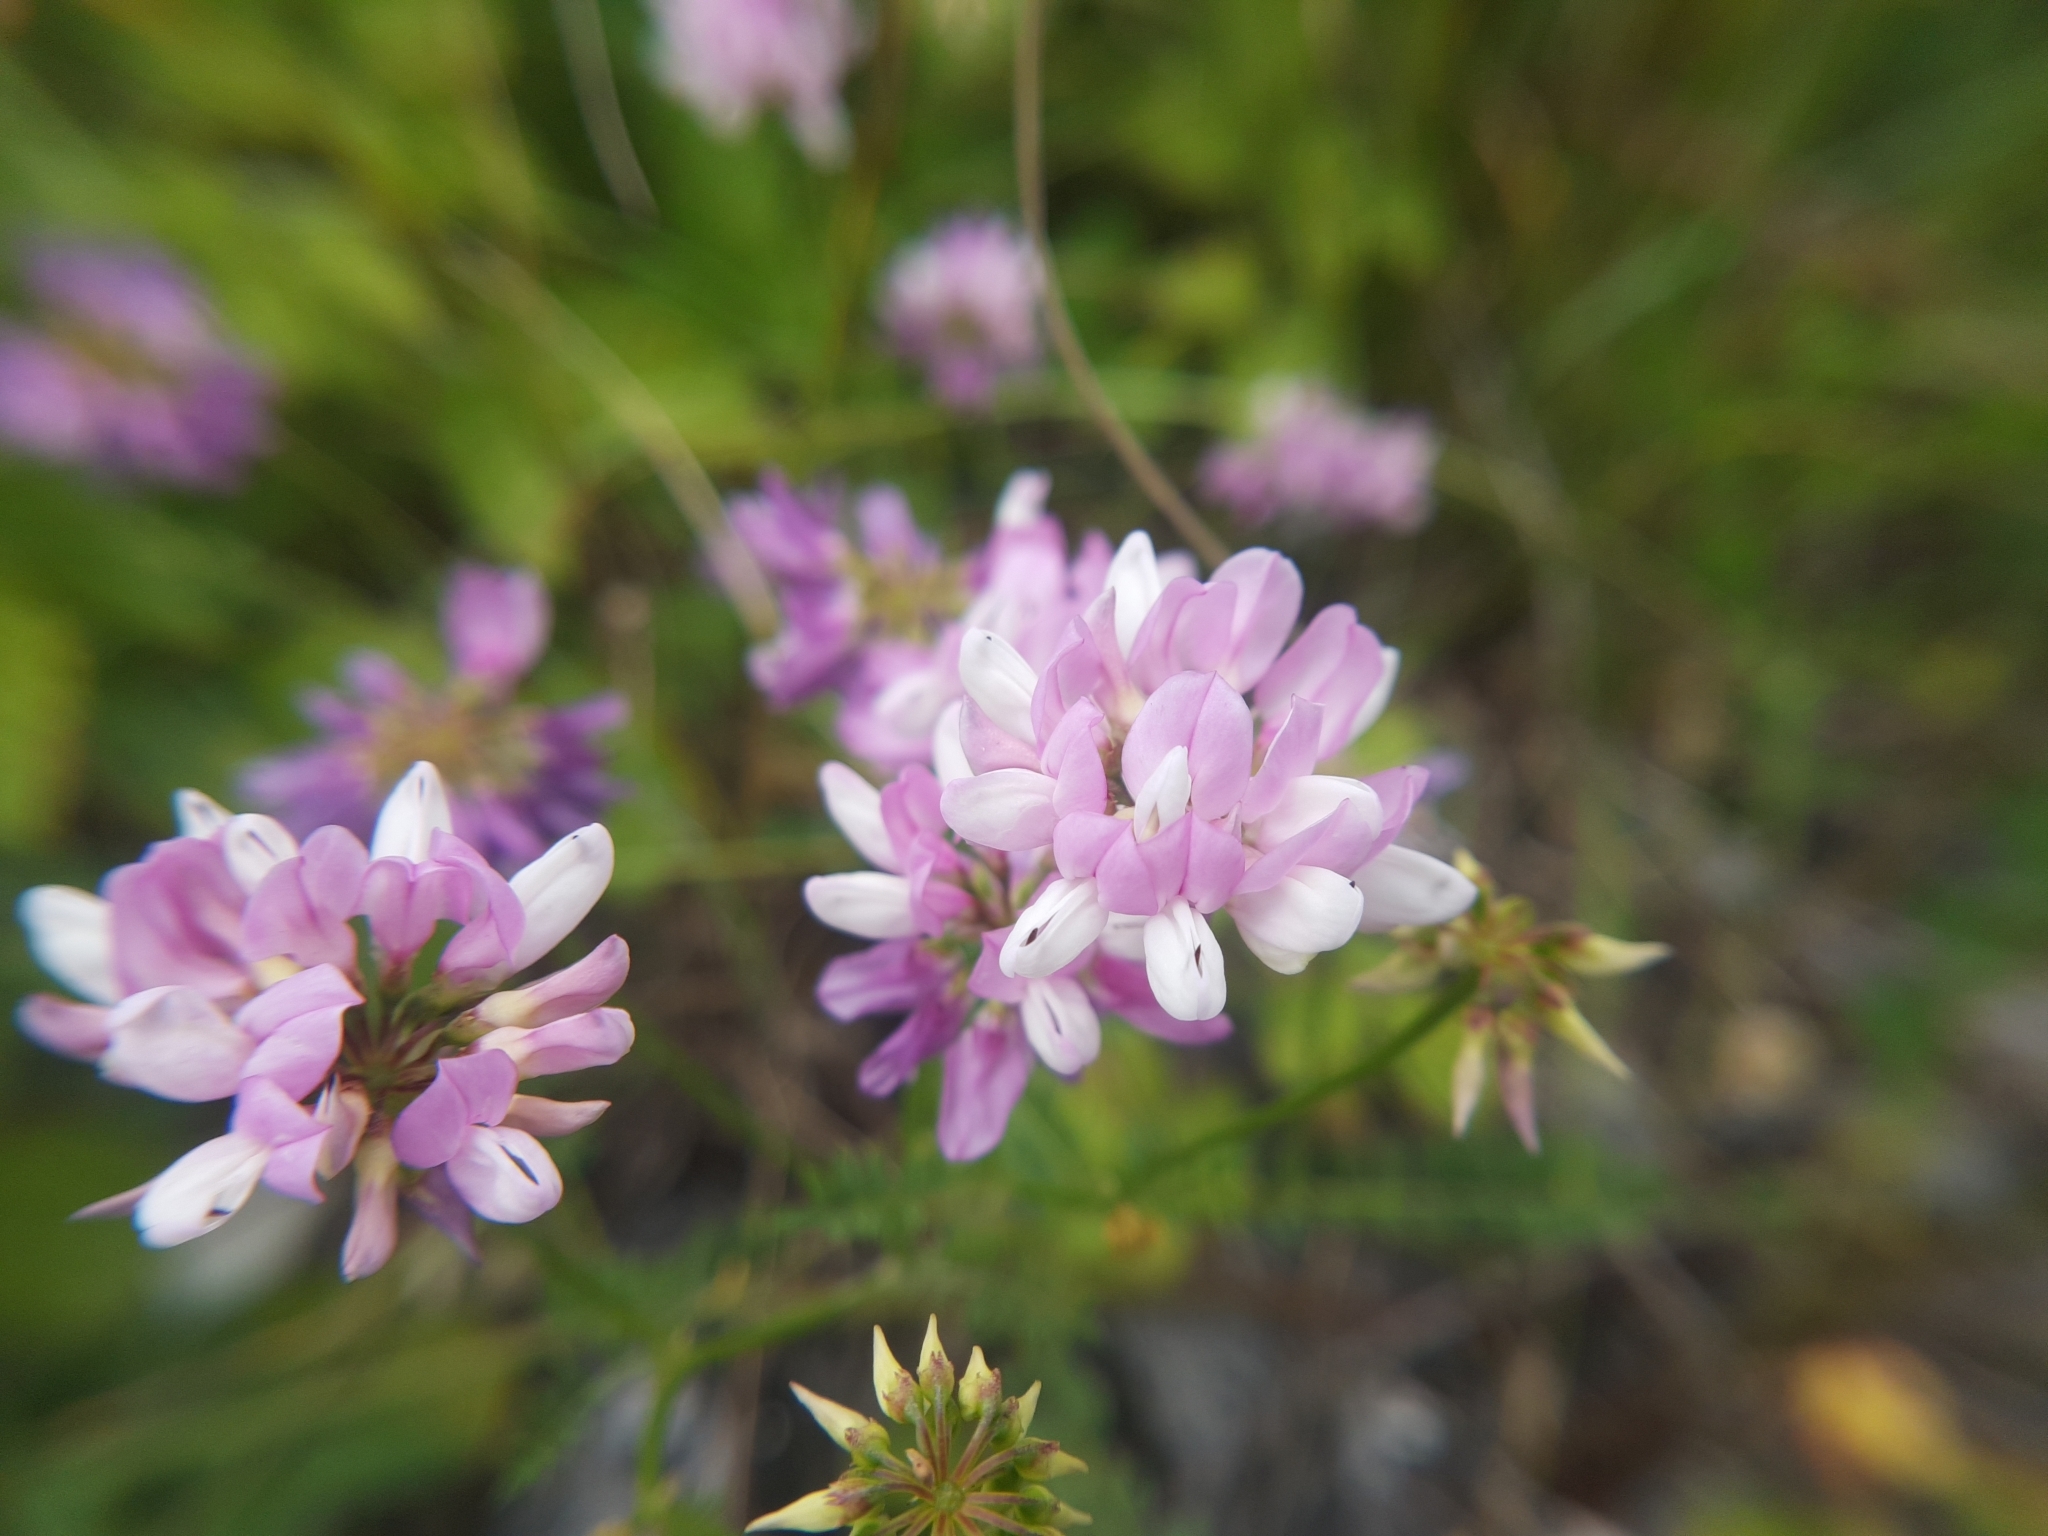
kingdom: Plantae
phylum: Tracheophyta
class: Magnoliopsida
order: Fabales
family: Fabaceae
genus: Coronilla
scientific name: Coronilla varia
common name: Crownvetch
